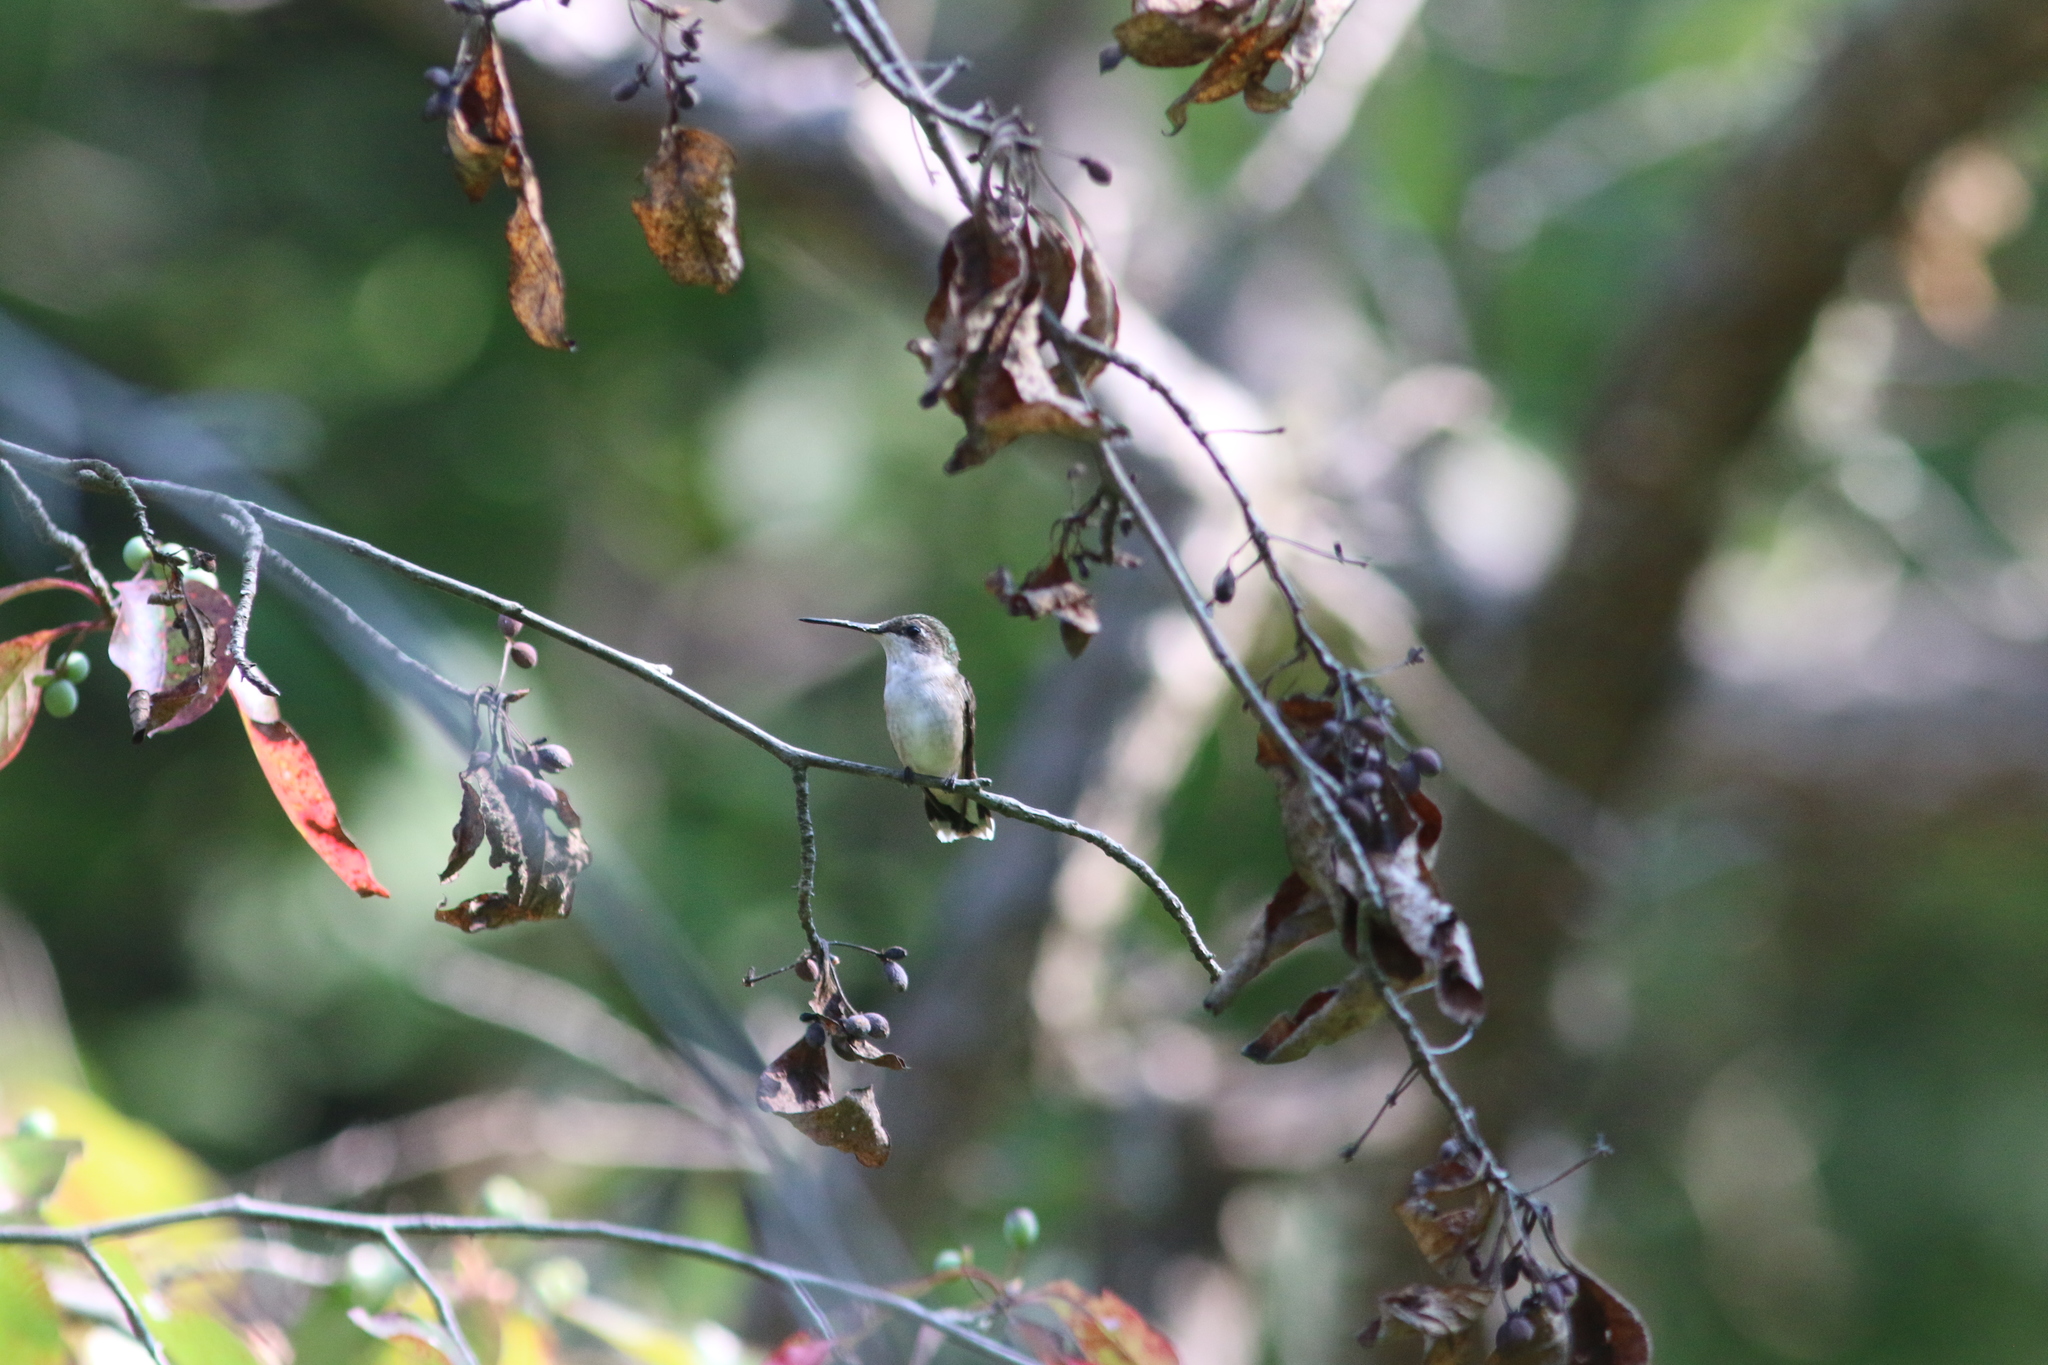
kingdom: Animalia
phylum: Chordata
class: Aves
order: Apodiformes
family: Trochilidae
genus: Archilochus
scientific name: Archilochus colubris
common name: Ruby-throated hummingbird
